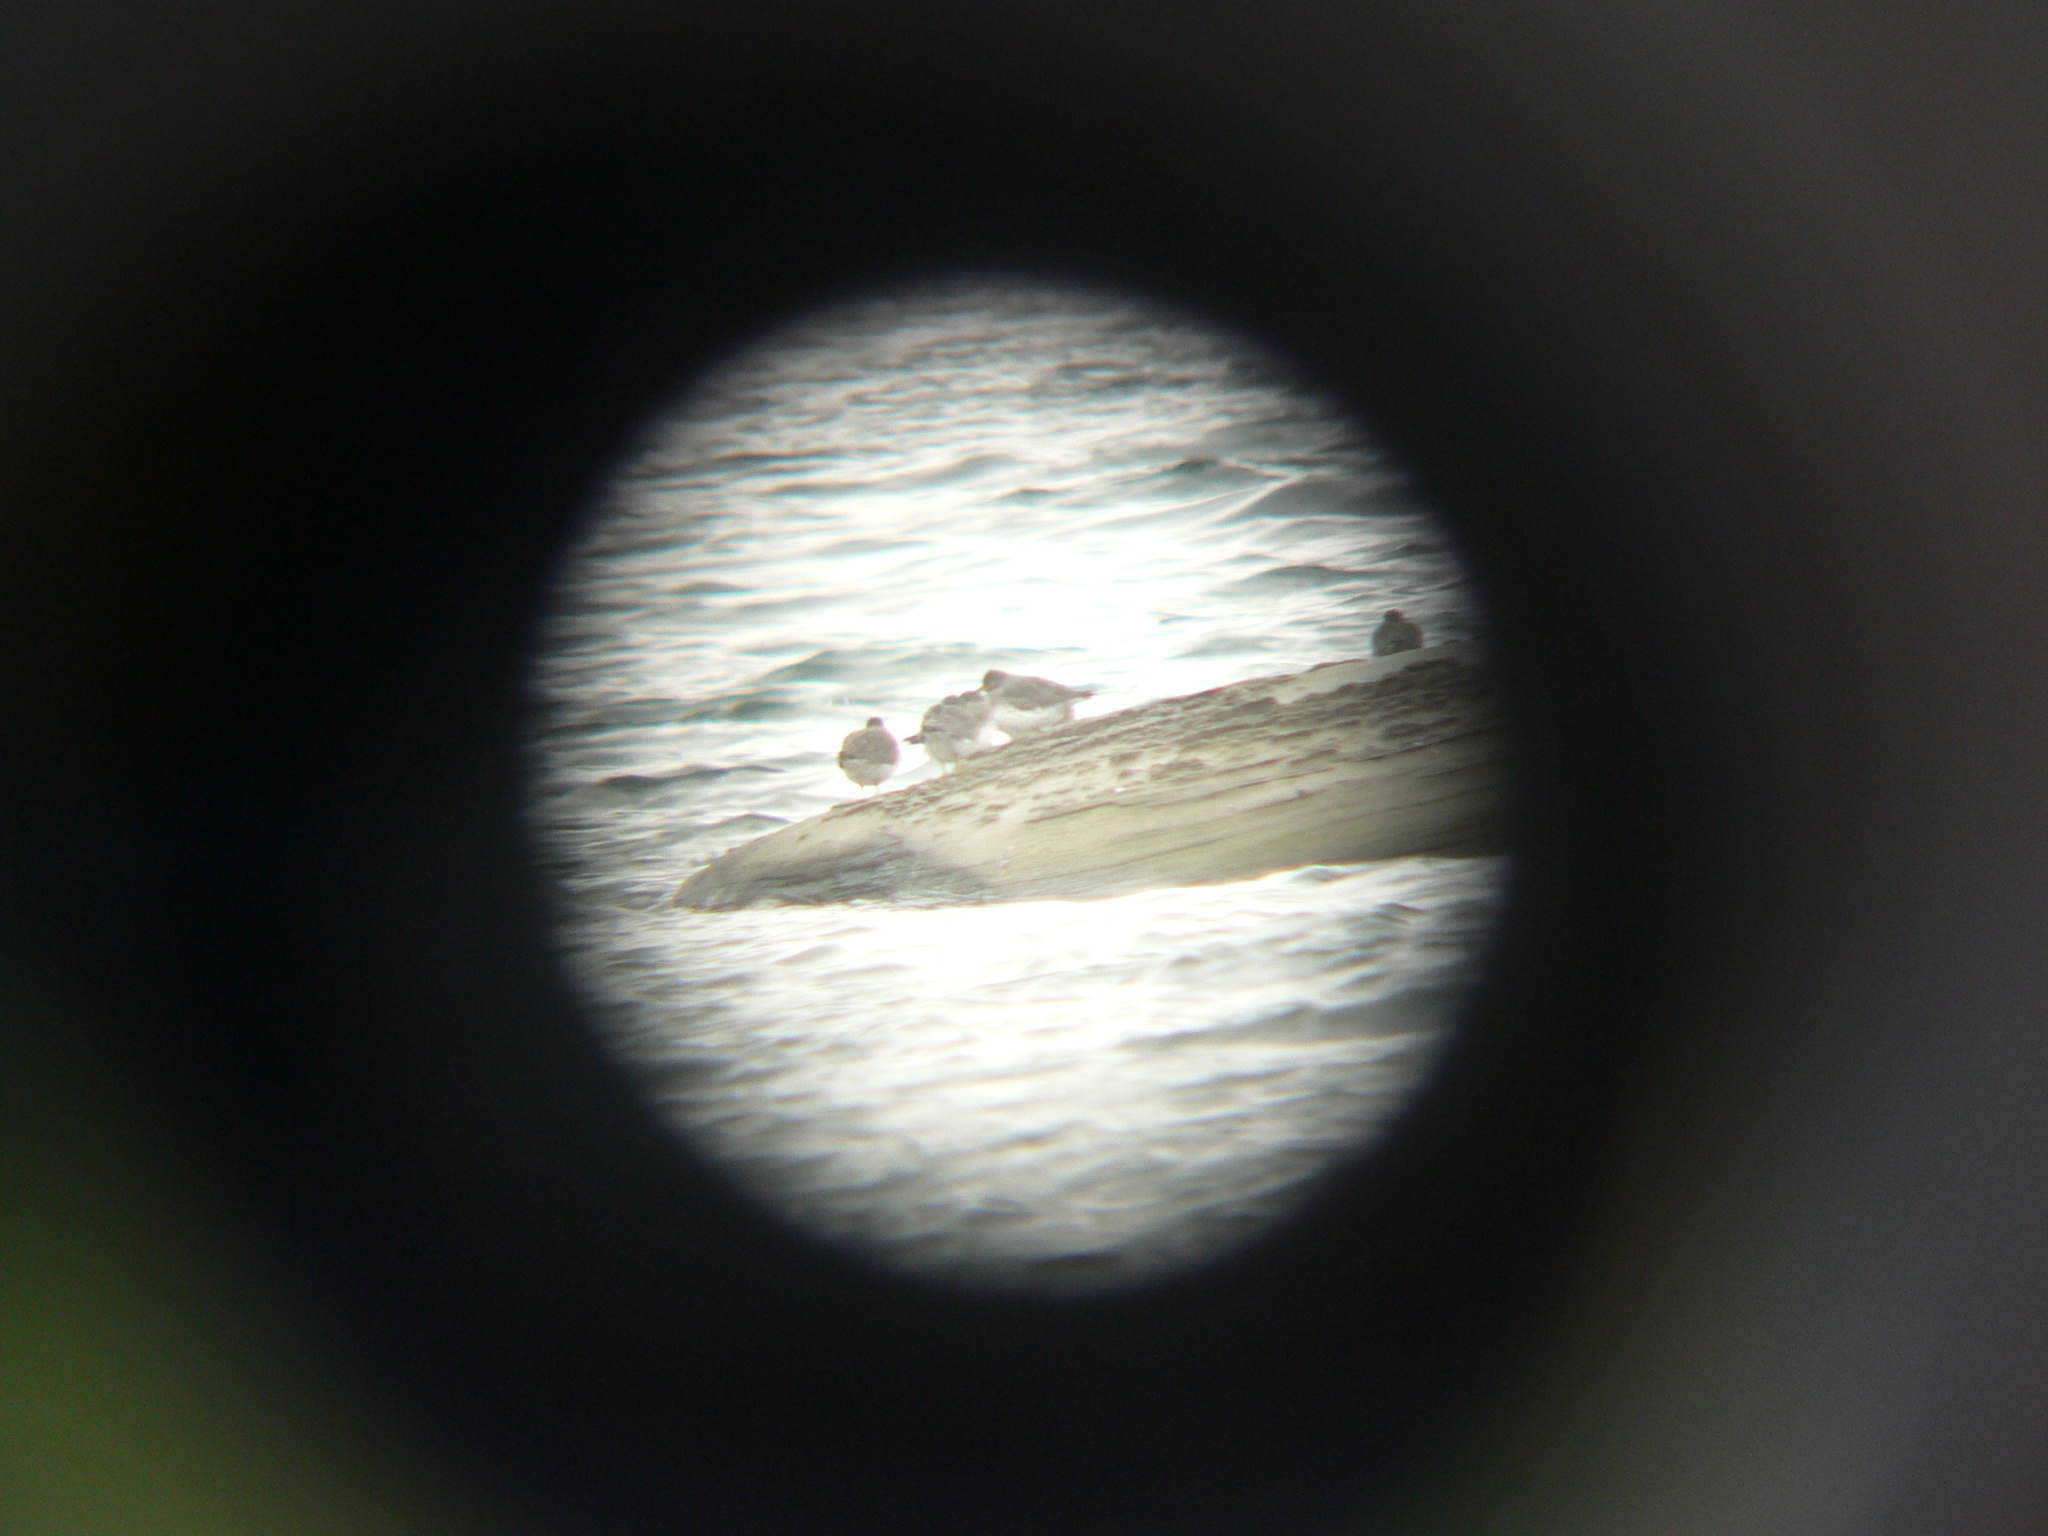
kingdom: Animalia
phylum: Chordata
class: Aves
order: Charadriiformes
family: Scolopacidae
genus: Calidris
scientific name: Calidris virgata
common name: Surfbird
